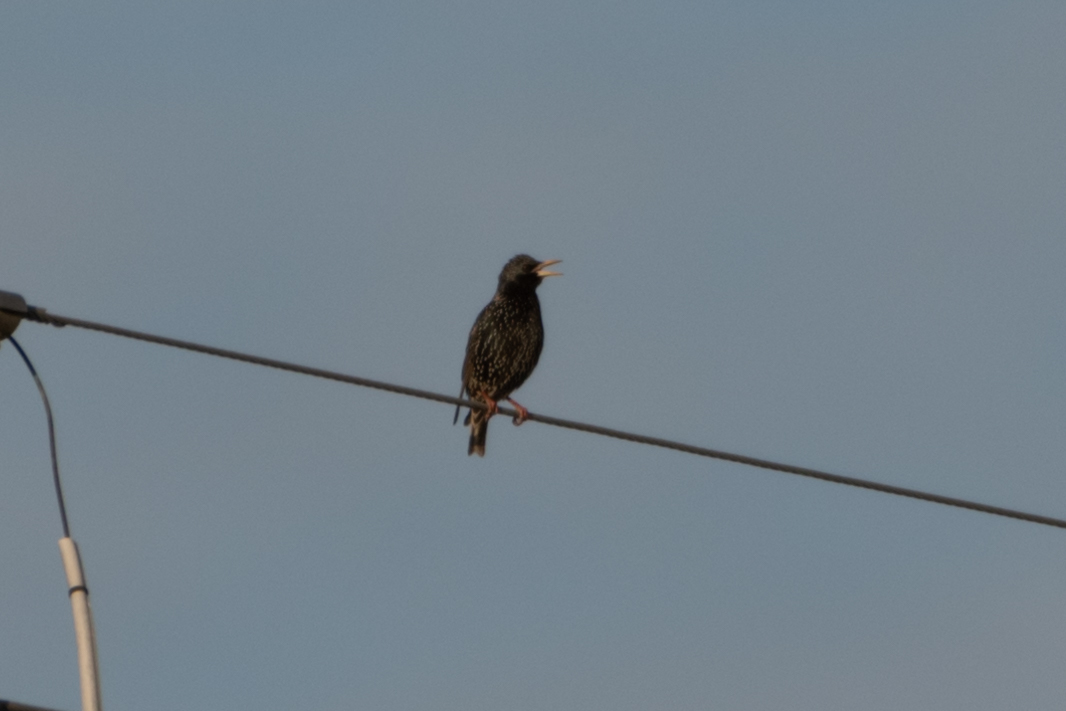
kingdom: Animalia
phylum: Chordata
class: Aves
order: Passeriformes
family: Sturnidae
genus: Sturnus
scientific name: Sturnus vulgaris
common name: Common starling
